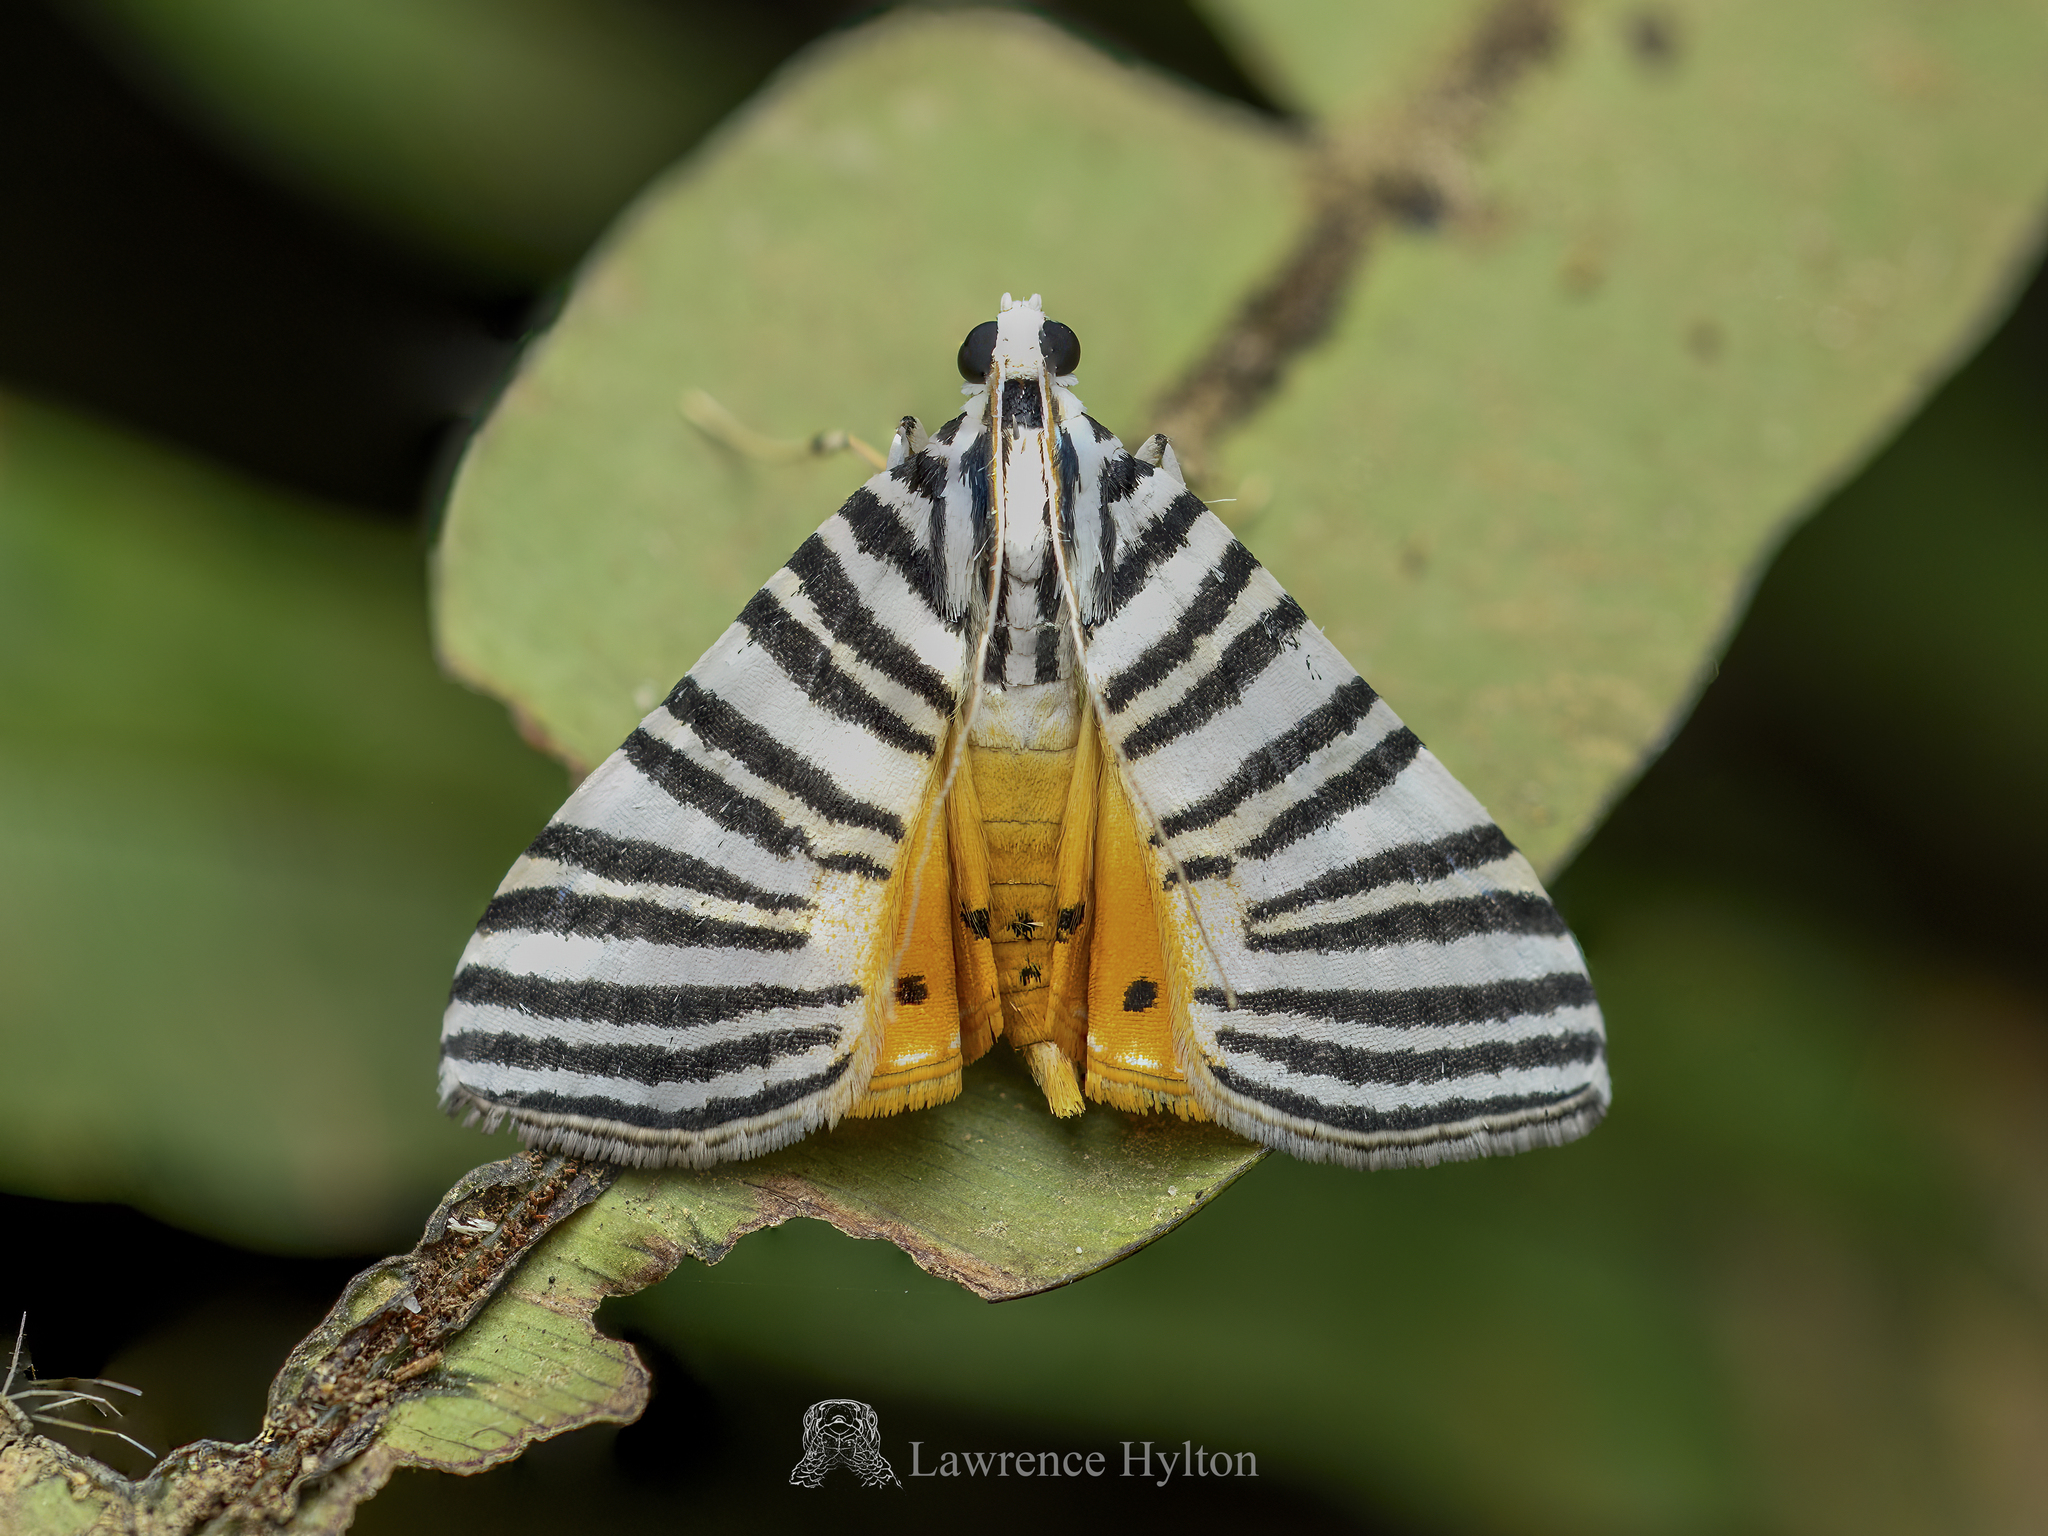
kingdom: Animalia
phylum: Arthropoda
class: Insecta
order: Lepidoptera
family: Crambidae
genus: Dichocrocis
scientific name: Dichocrocis zebralis
